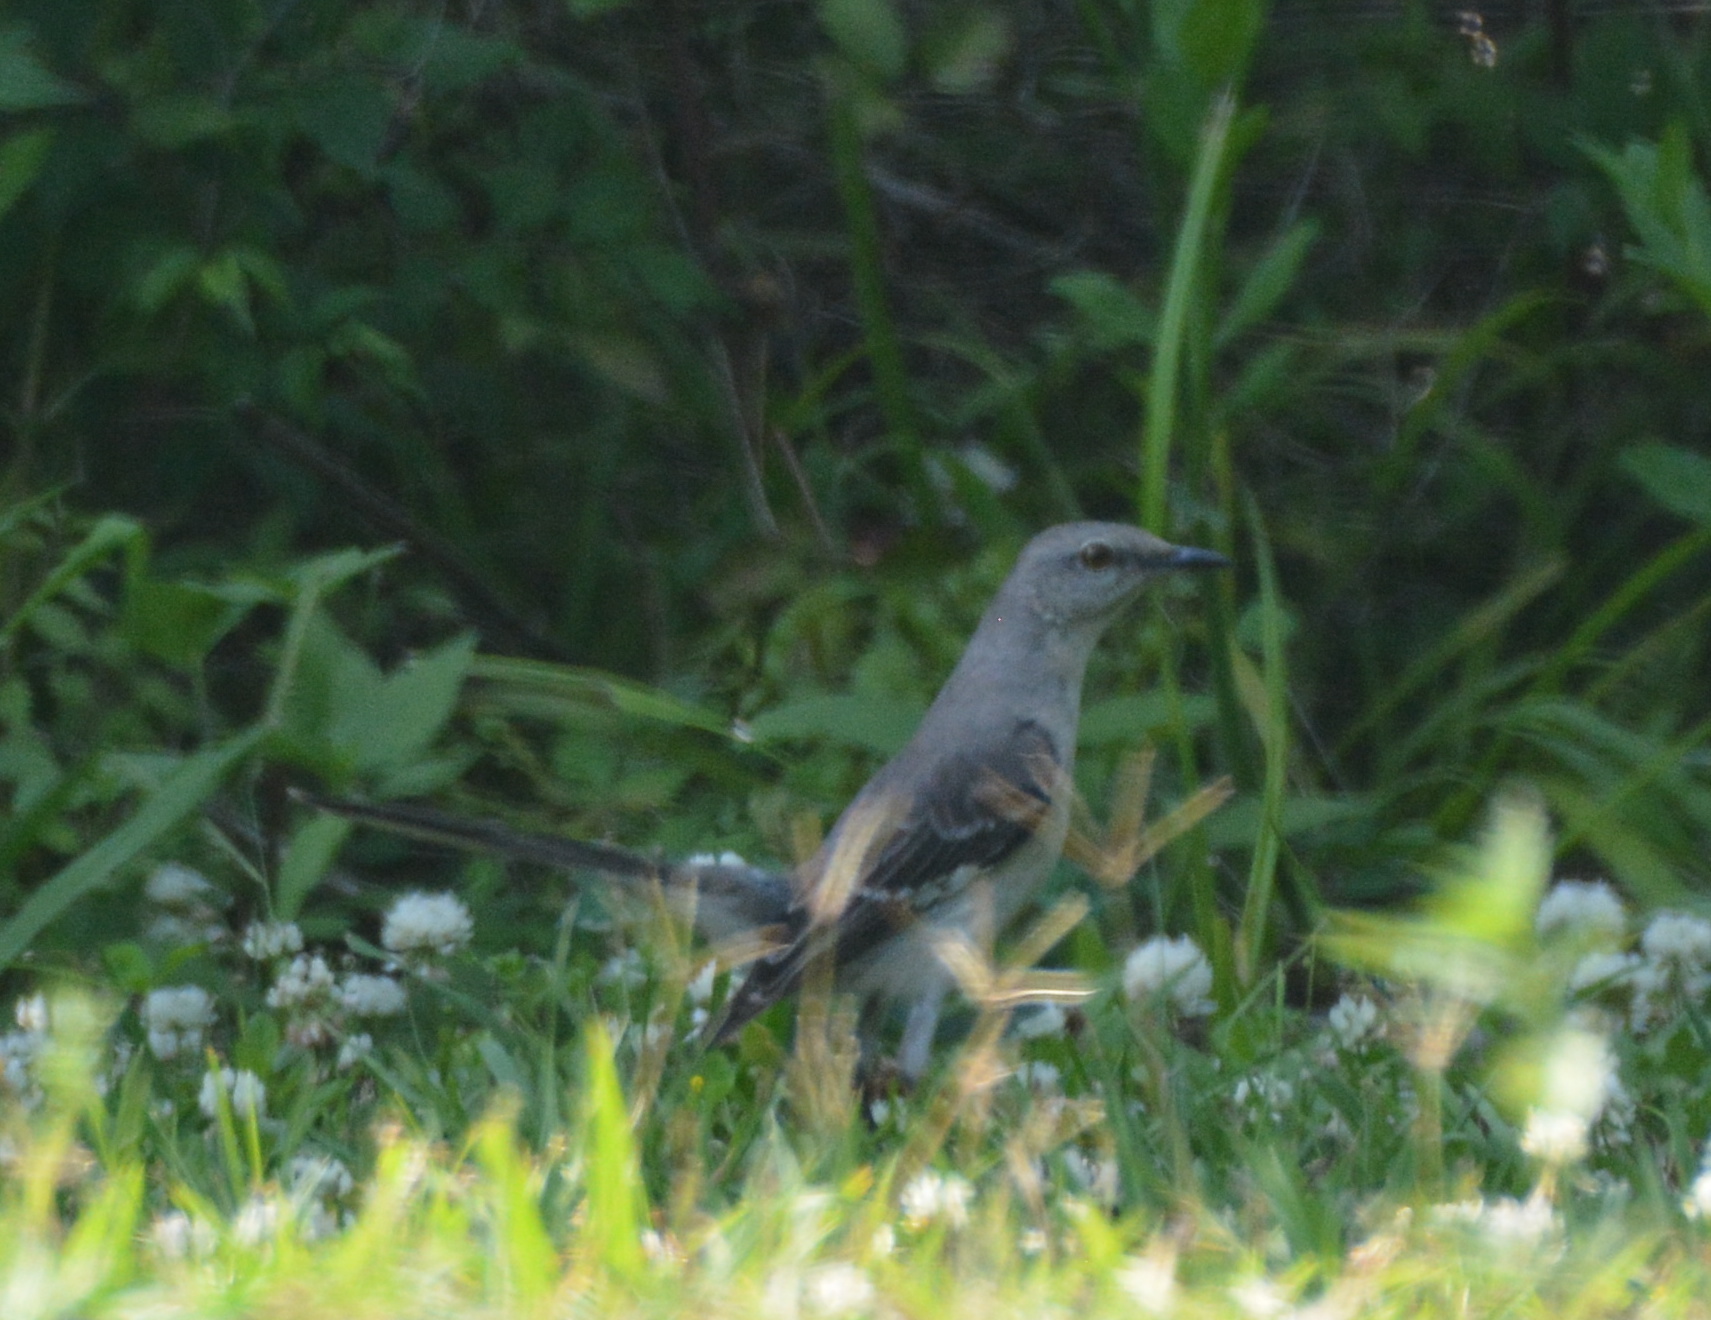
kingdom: Animalia
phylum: Chordata
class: Aves
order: Passeriformes
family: Mimidae
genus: Mimus
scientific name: Mimus polyglottos
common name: Northern mockingbird
